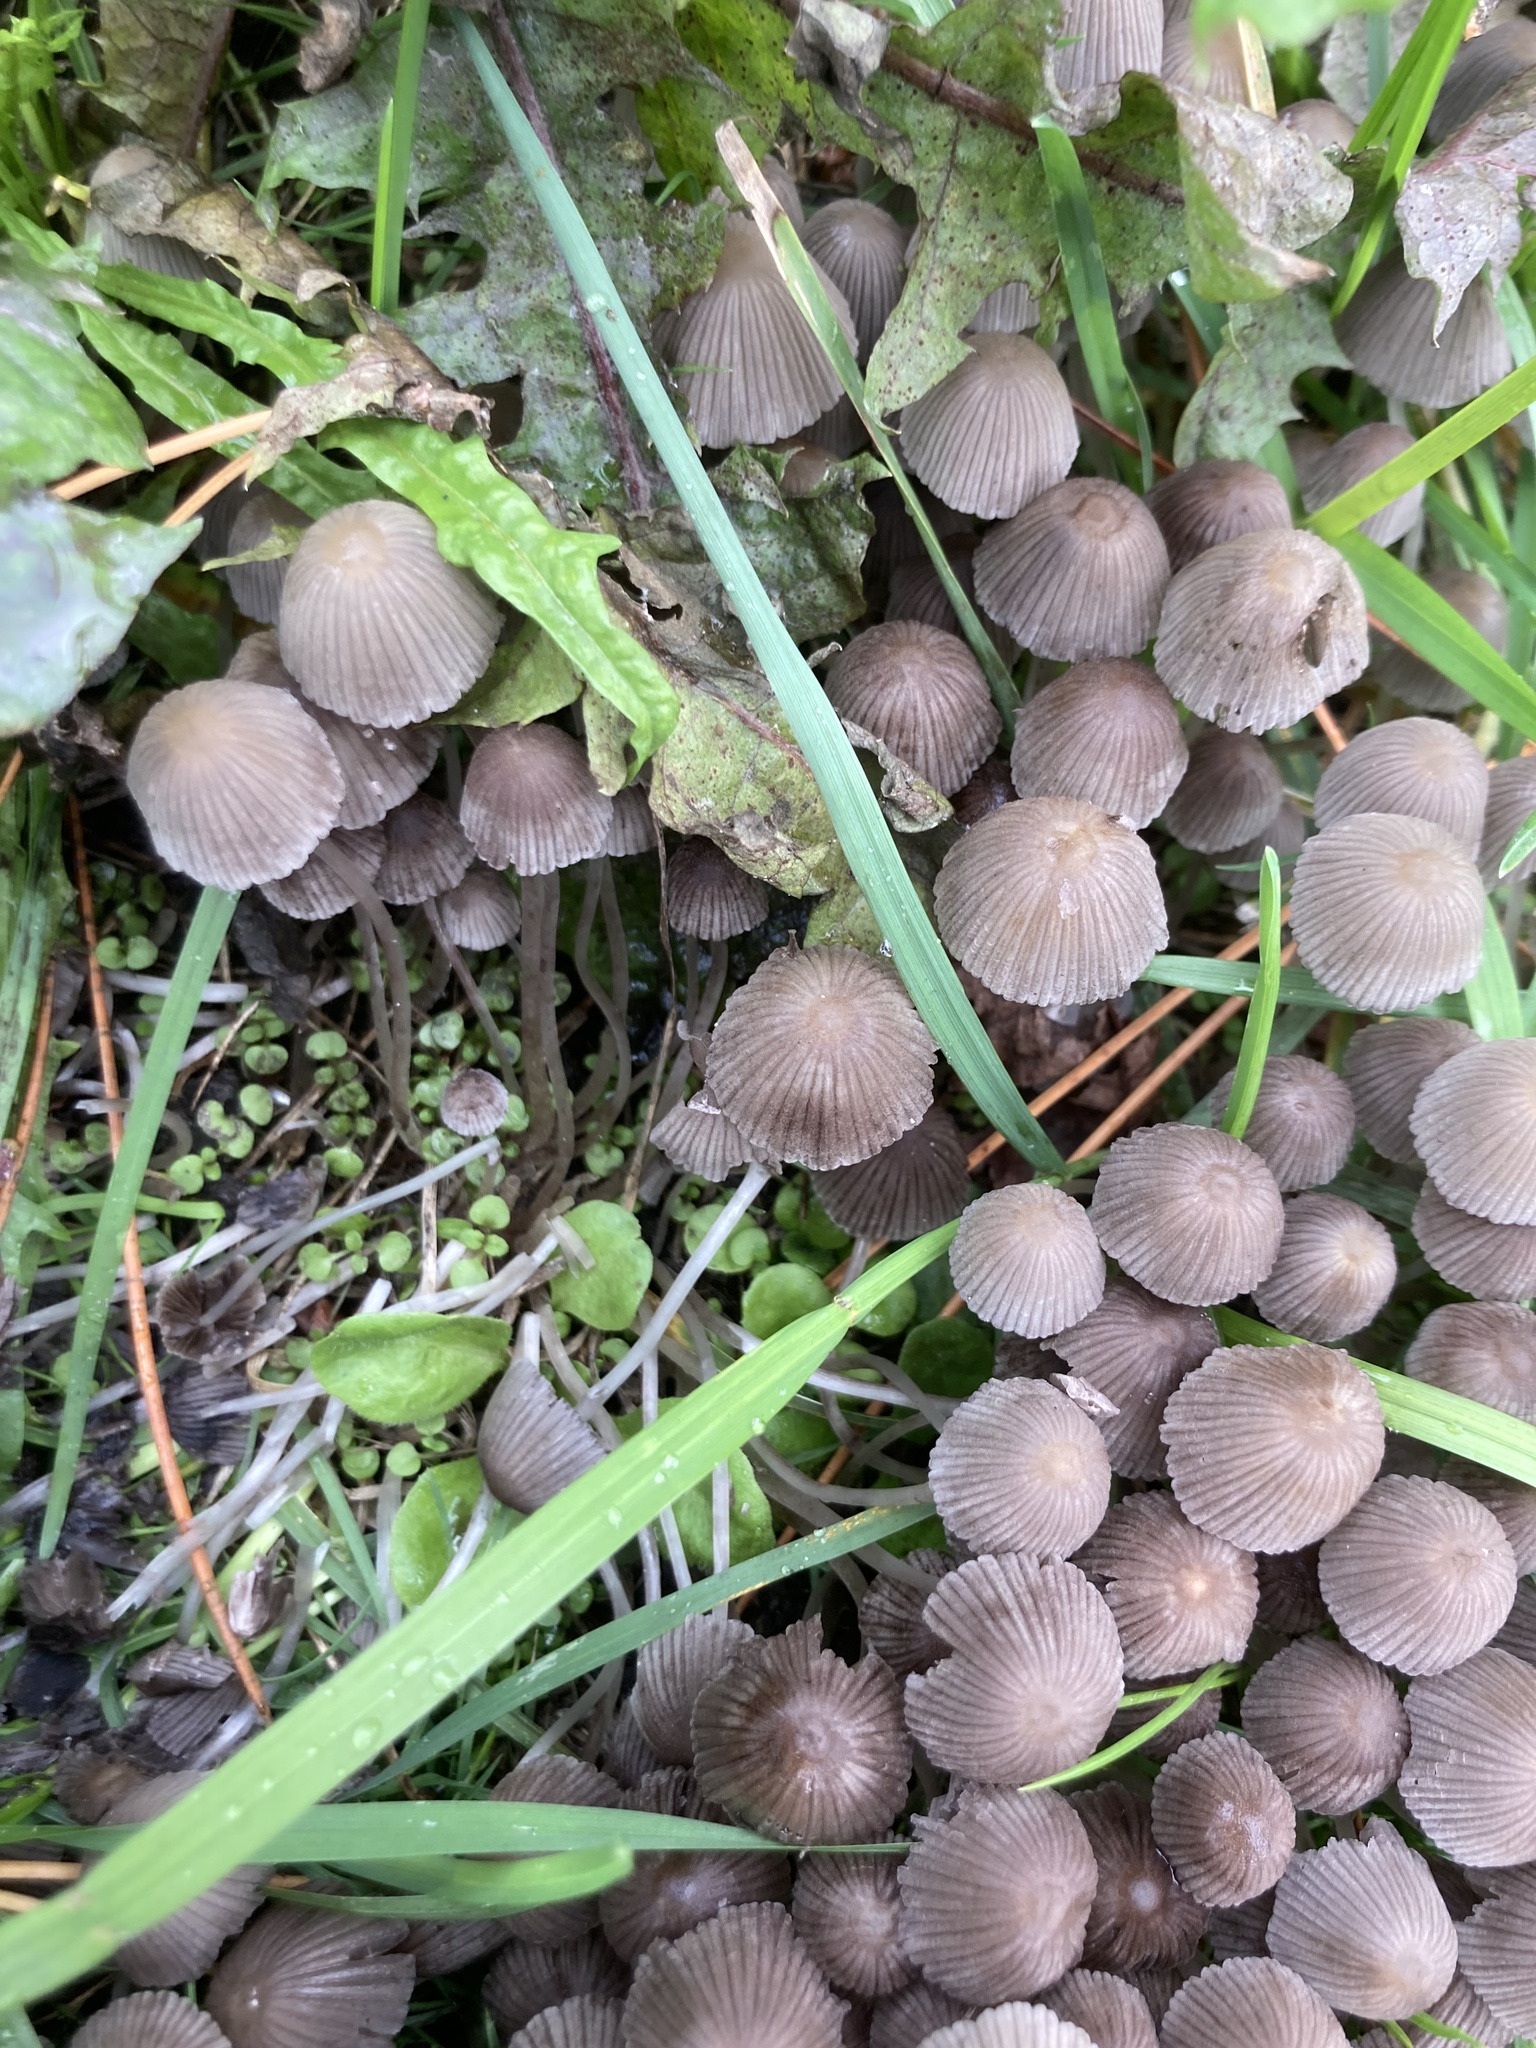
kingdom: Fungi
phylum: Basidiomycota
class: Agaricomycetes
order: Agaricales
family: Psathyrellaceae
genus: Coprinellus
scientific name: Coprinellus disseminatus
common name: Fairies' bonnets
